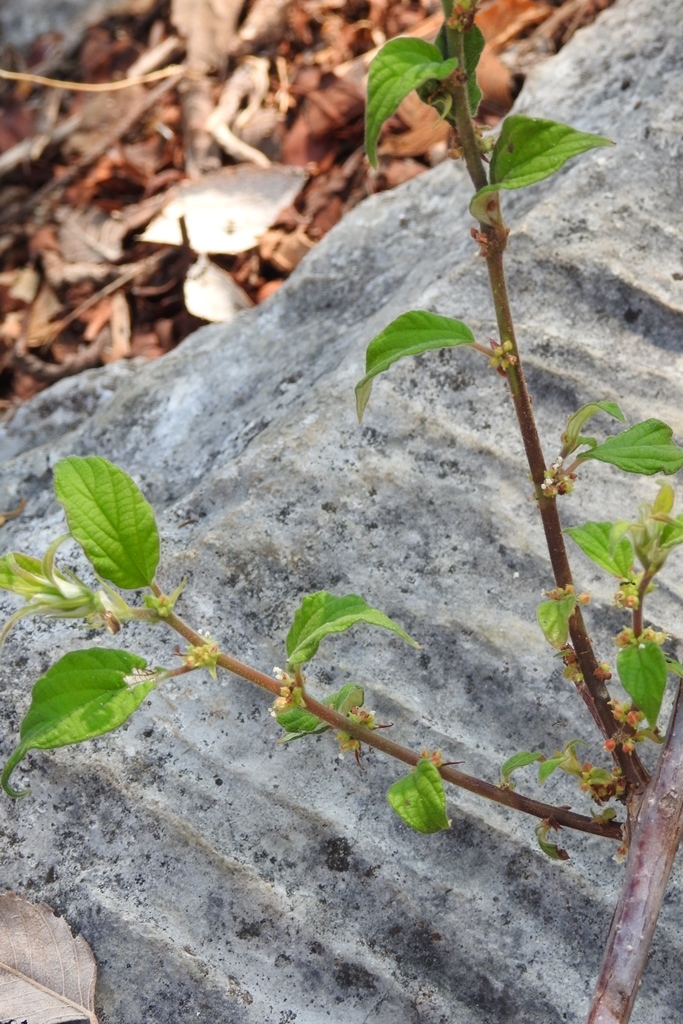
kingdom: Plantae
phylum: Tracheophyta
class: Magnoliopsida
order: Rosales
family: Urticaceae
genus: Pouzolzia
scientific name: Pouzolzia occidentalis
